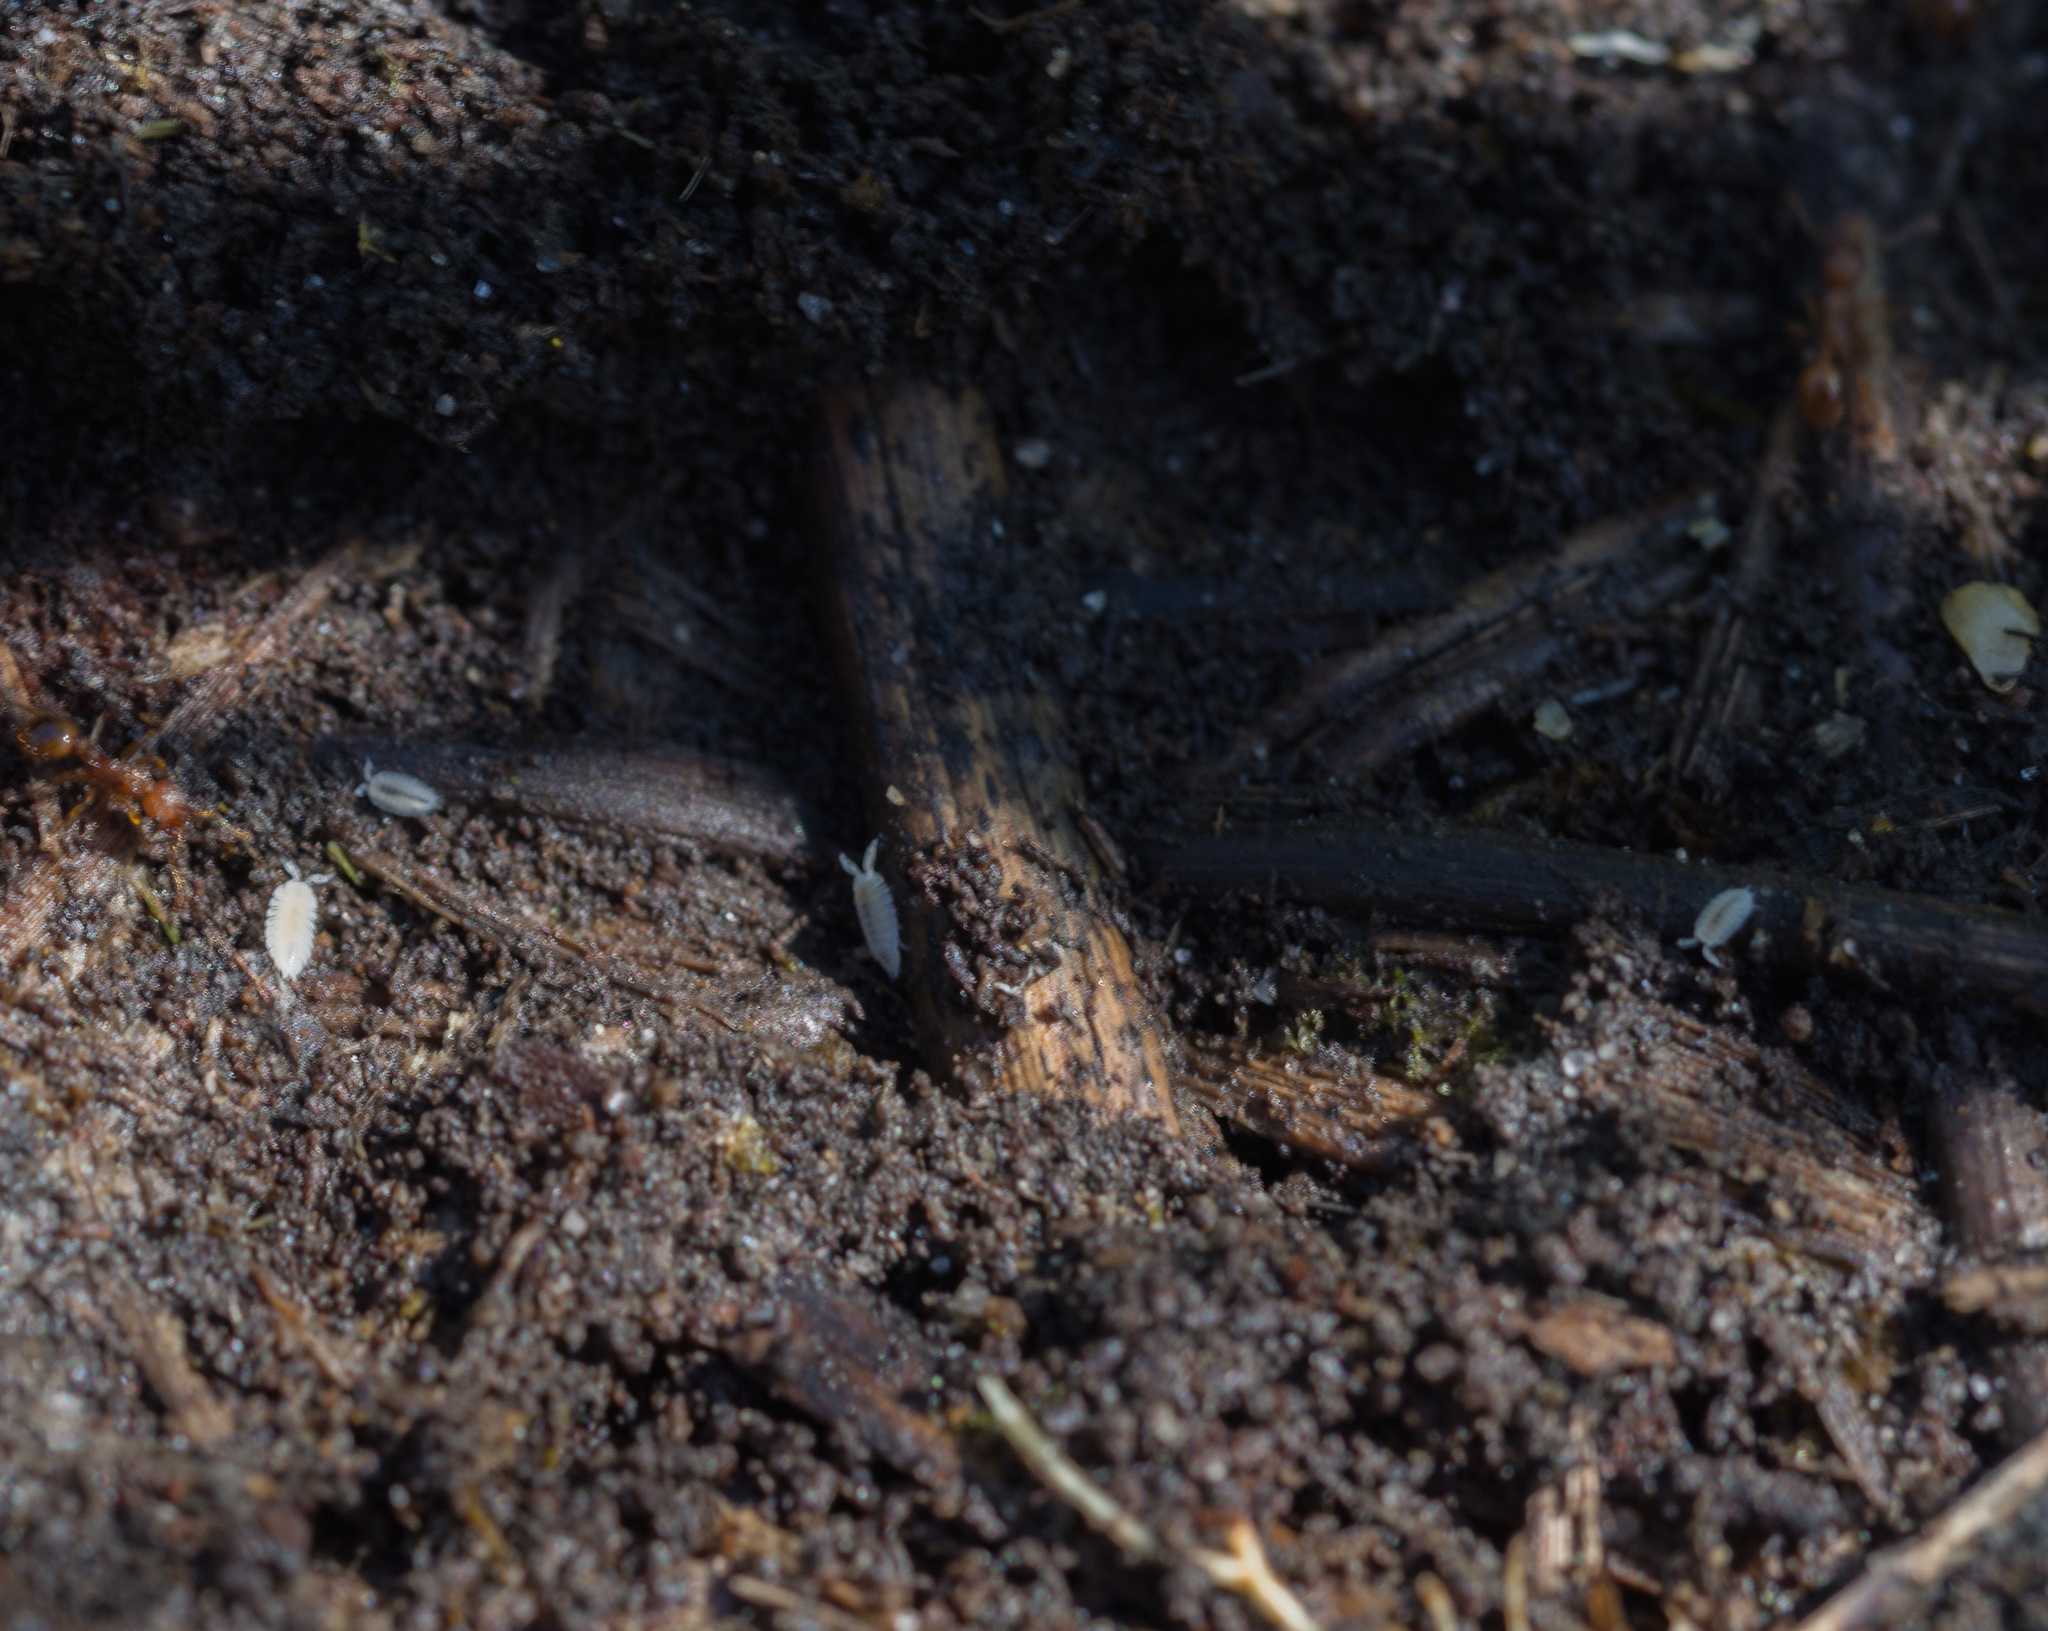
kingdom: Animalia
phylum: Arthropoda
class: Malacostraca
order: Isopoda
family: Platyarthridae
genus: Platyarthrus
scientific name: Platyarthrus hoffmannseggii
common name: Ant woodlouse
